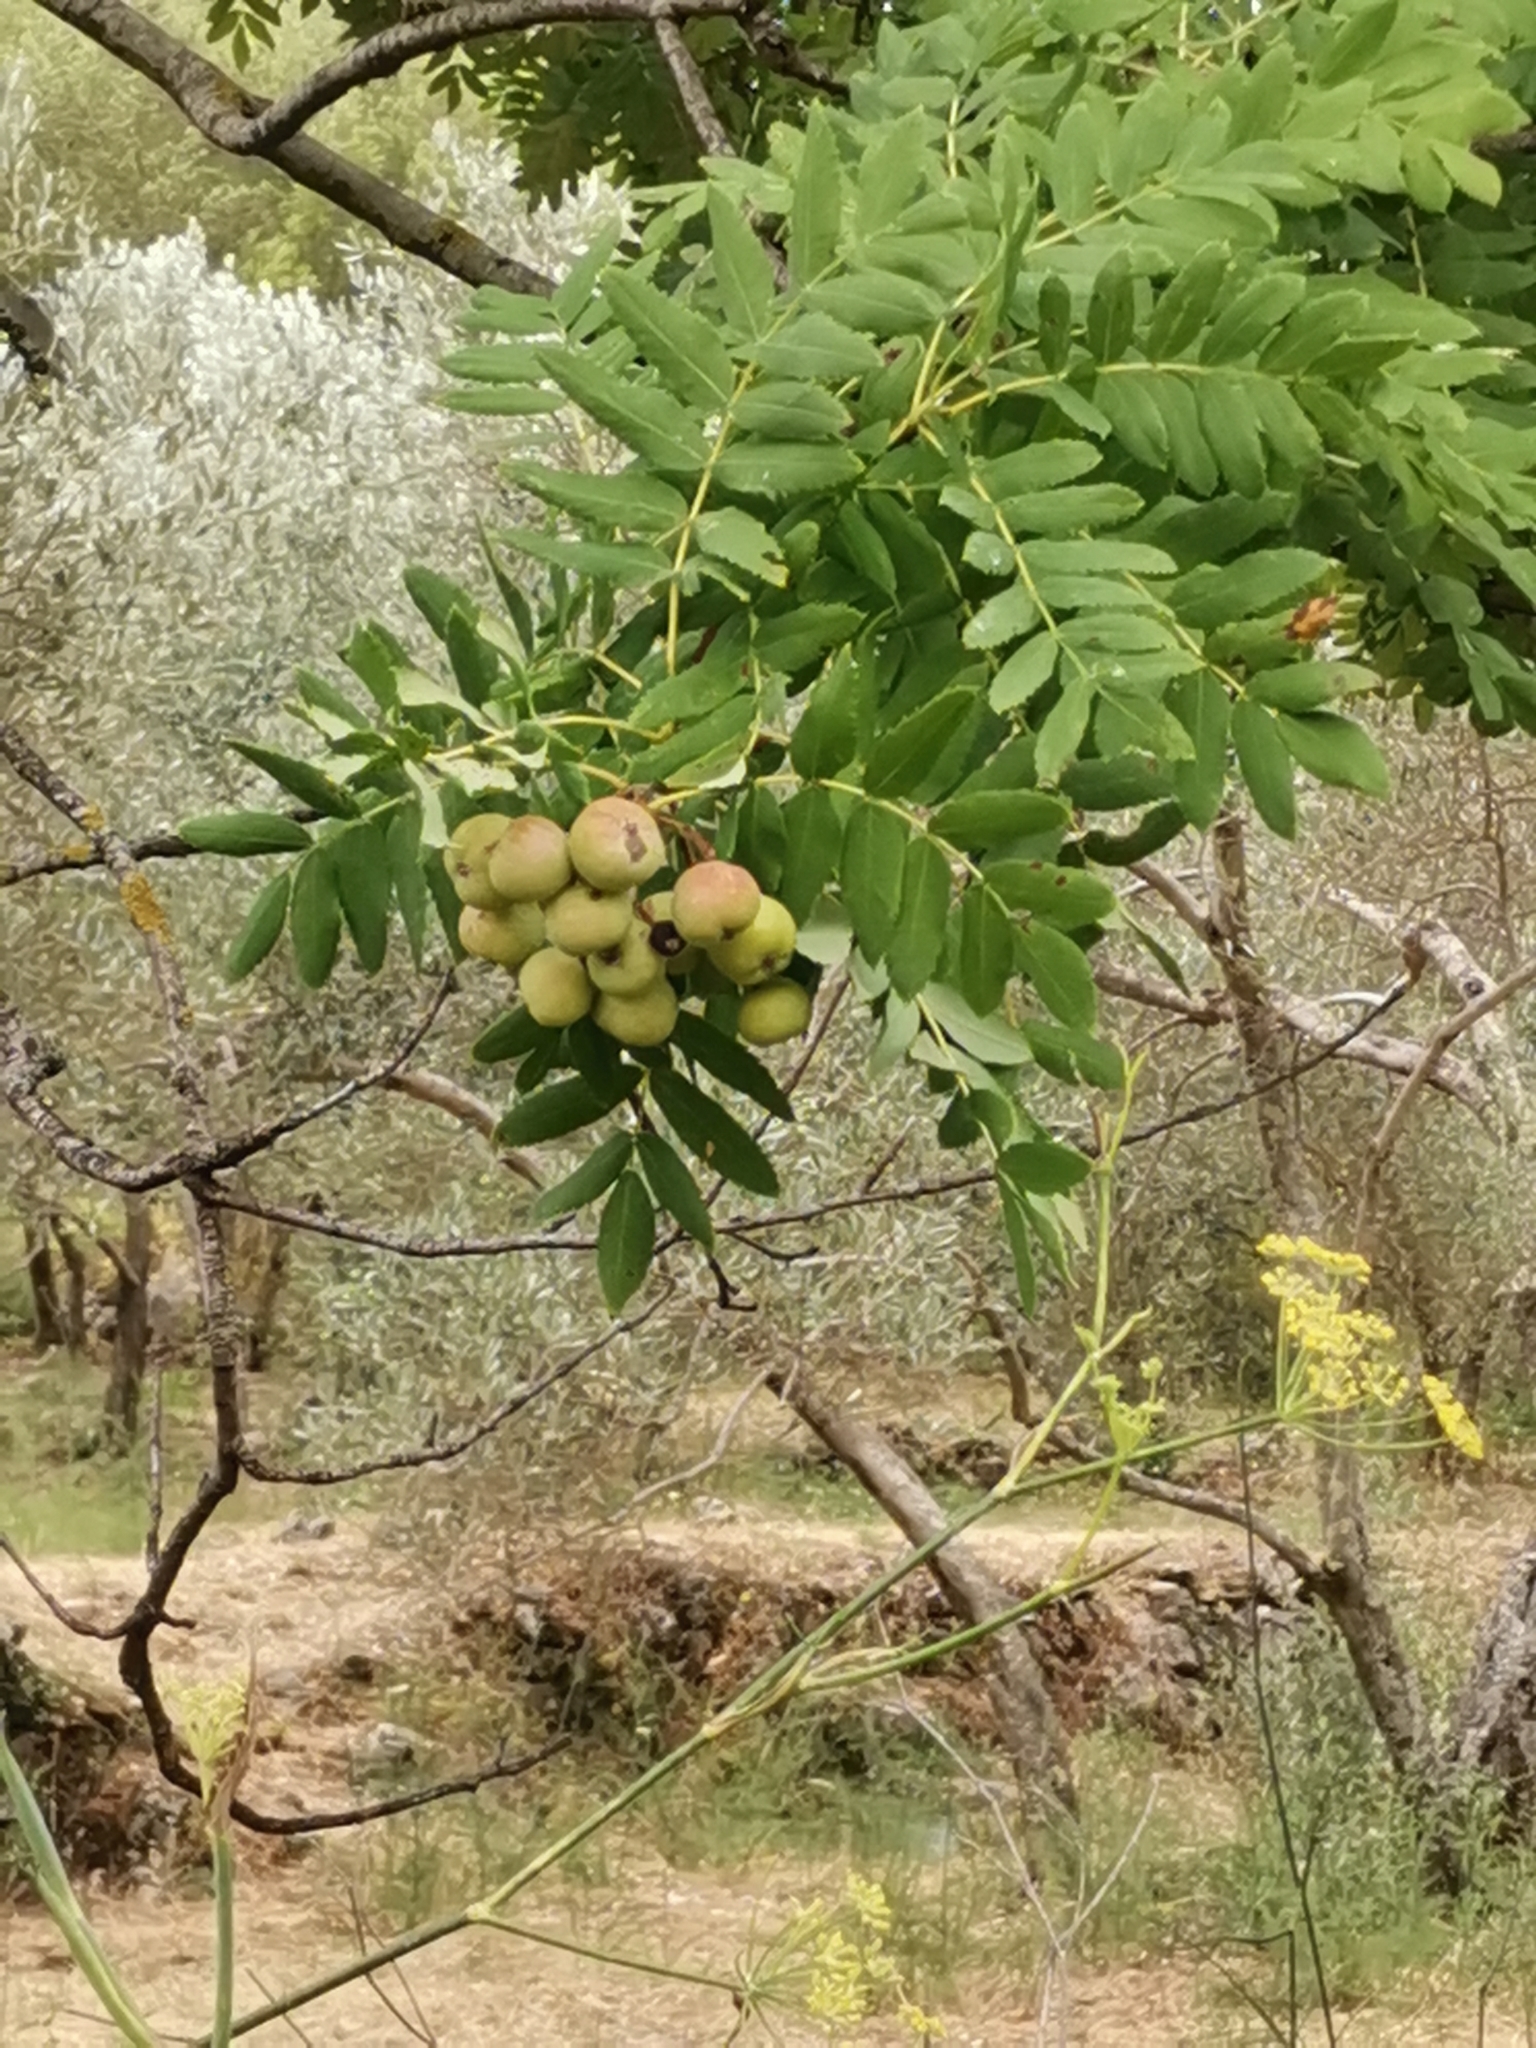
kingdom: Plantae
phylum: Tracheophyta
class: Magnoliopsida
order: Rosales
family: Rosaceae
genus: Cormus
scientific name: Cormus domestica
